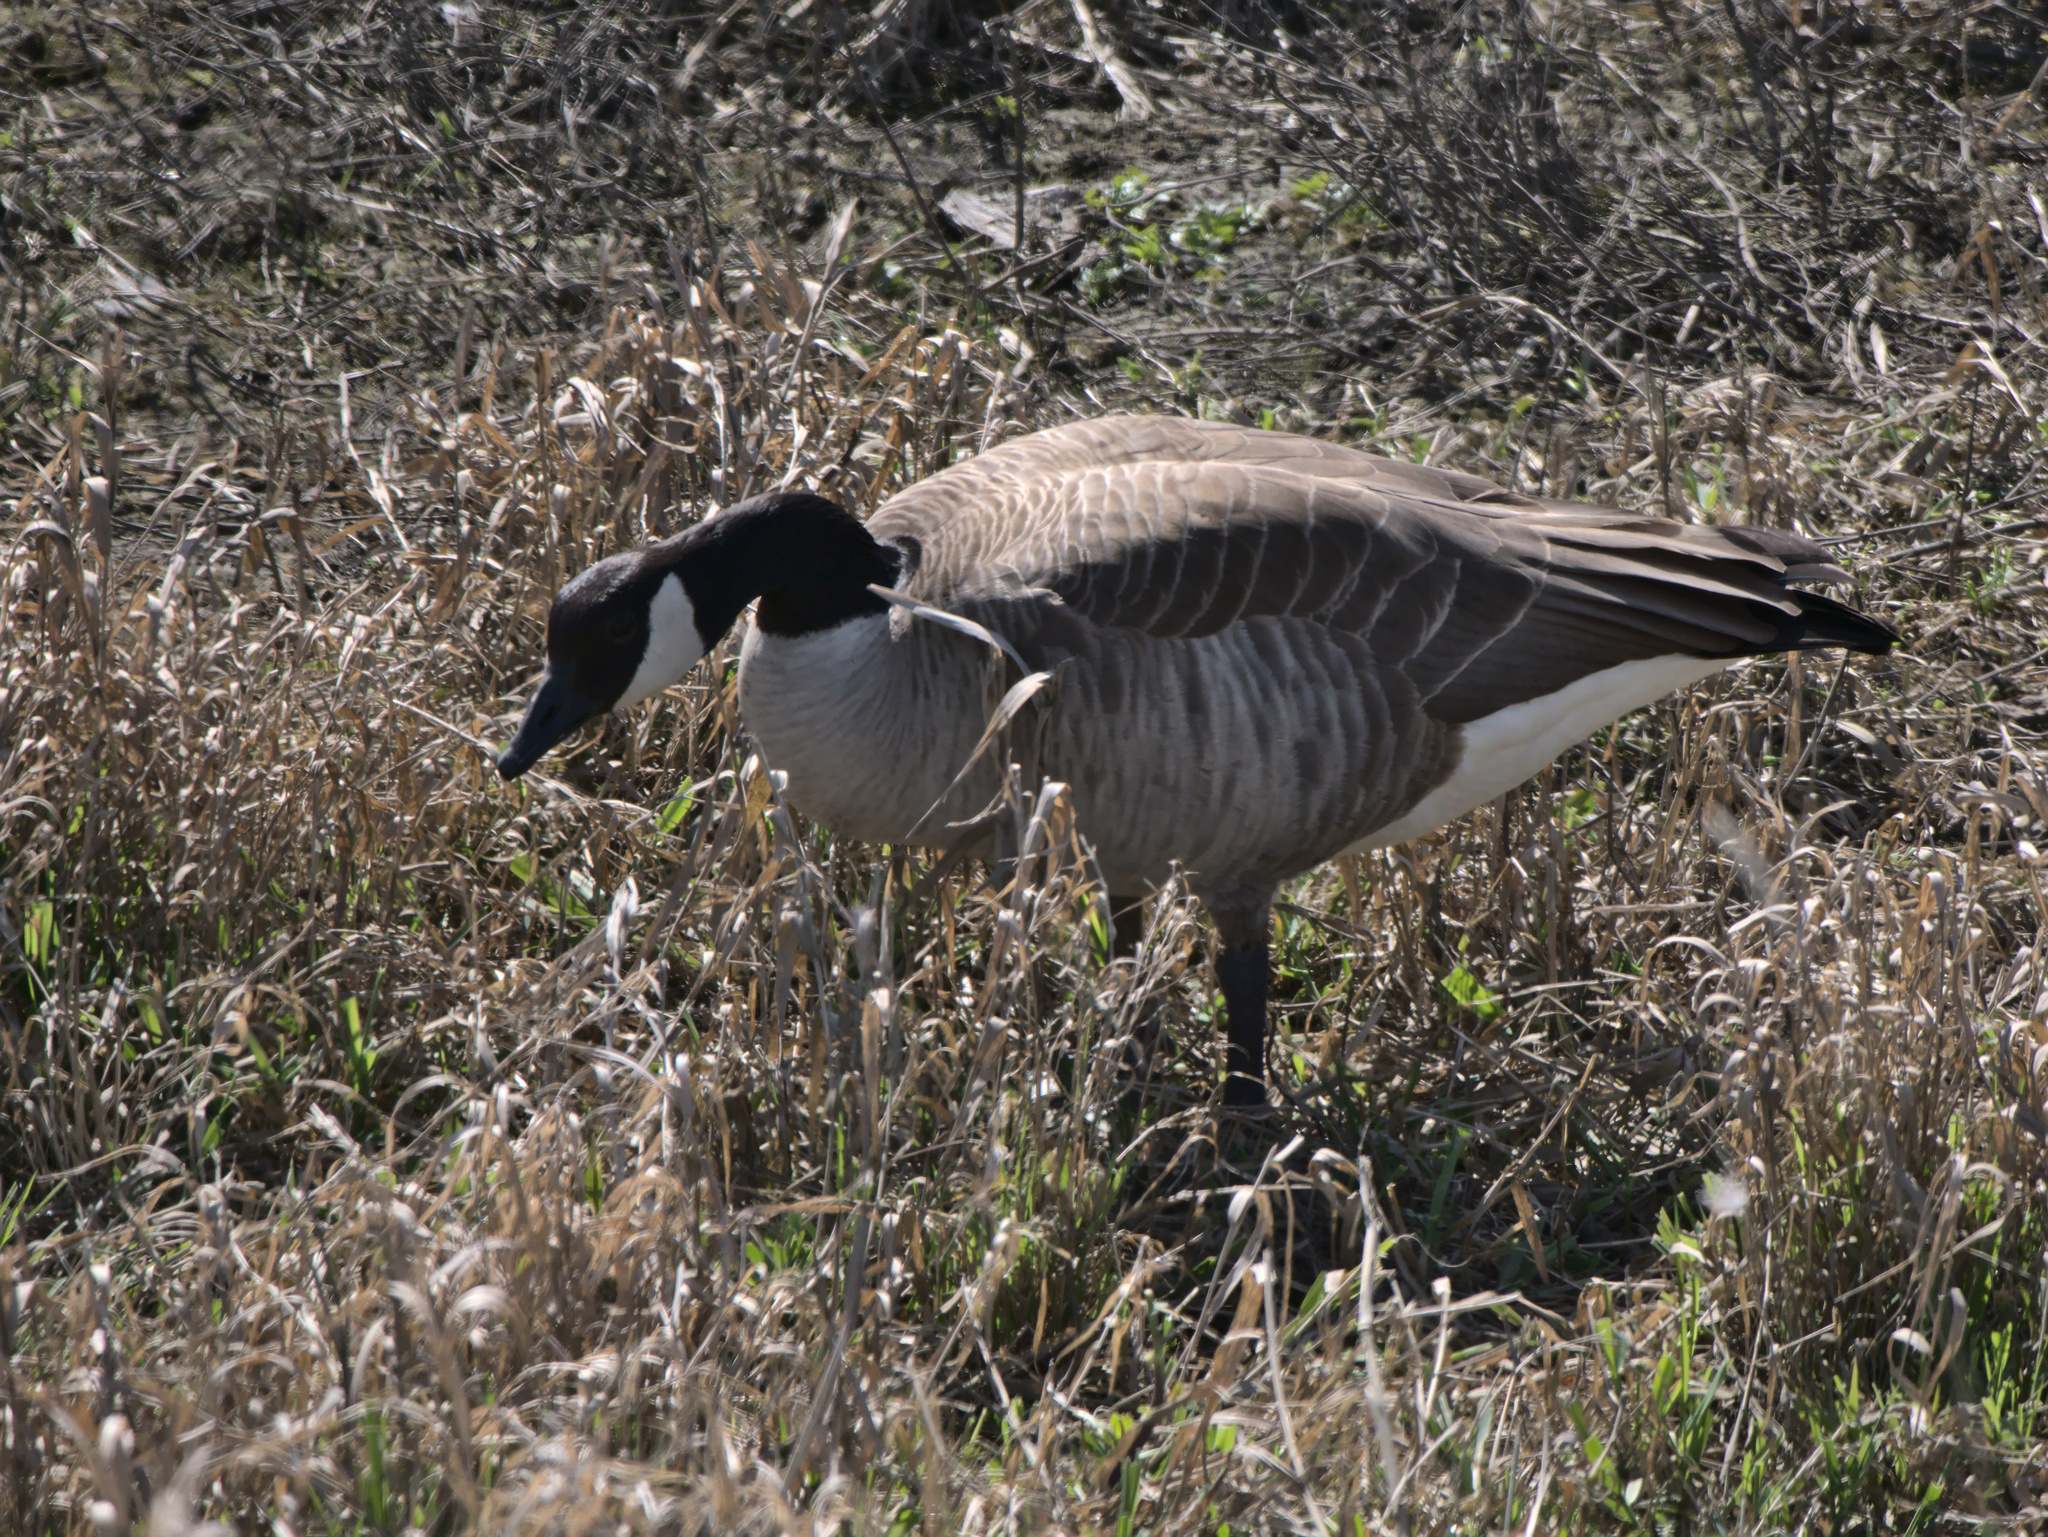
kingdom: Animalia
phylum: Chordata
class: Aves
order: Anseriformes
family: Anatidae
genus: Branta
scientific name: Branta canadensis
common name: Canada goose
